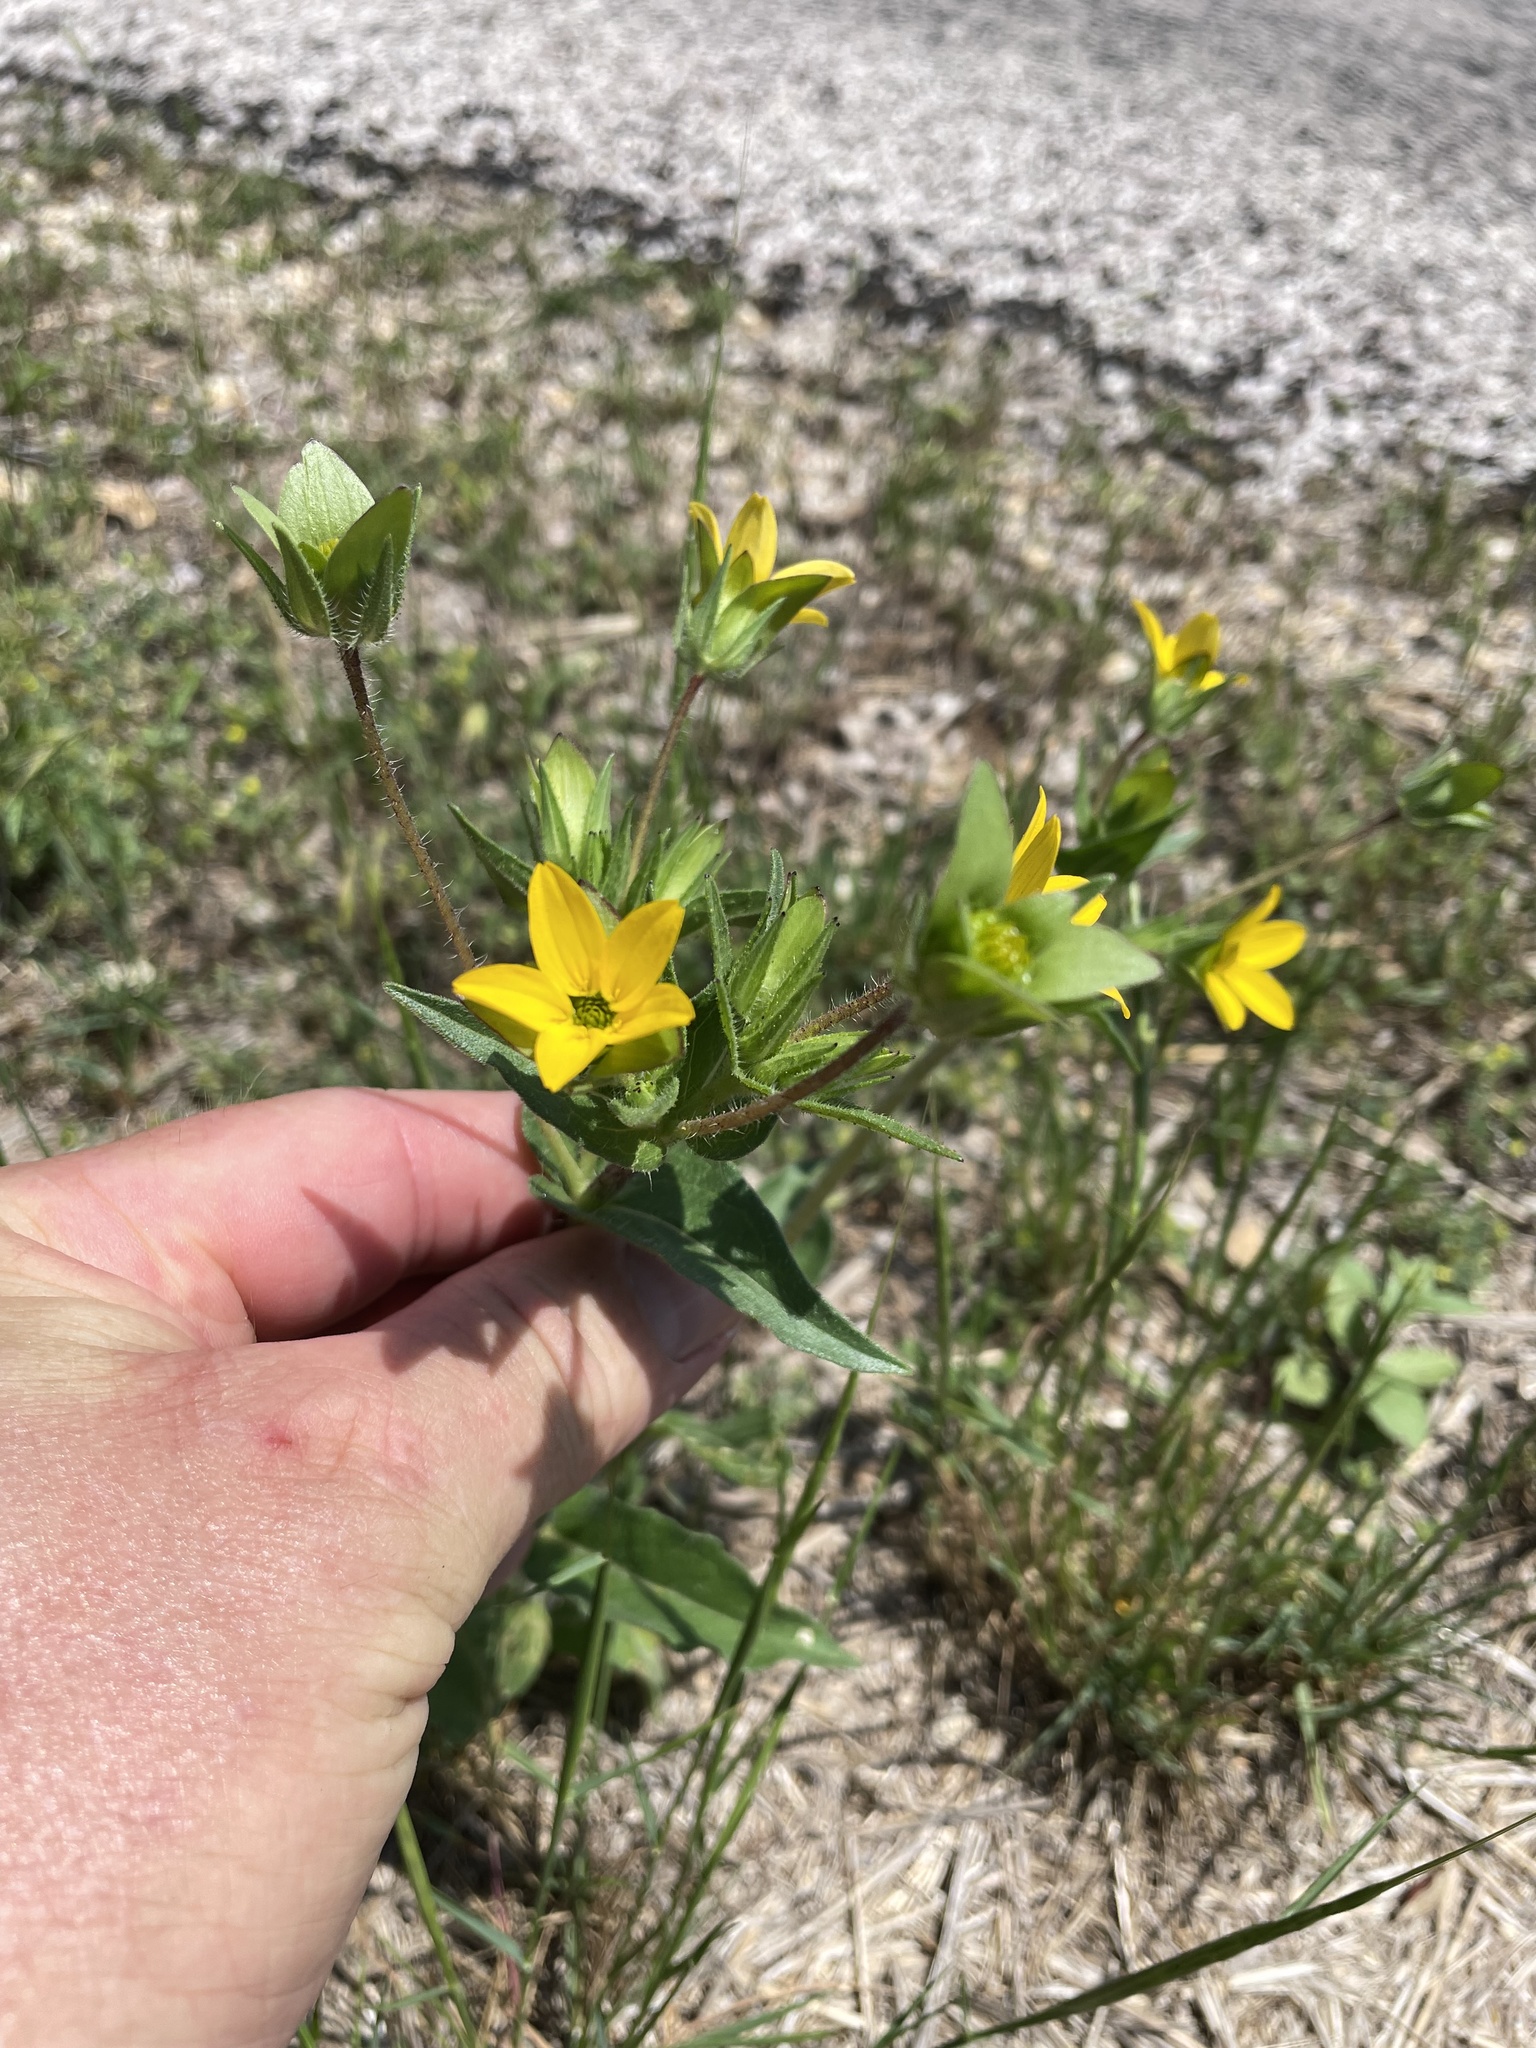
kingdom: Plantae
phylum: Tracheophyta
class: Magnoliopsida
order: Asterales
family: Asteraceae
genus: Lindheimera
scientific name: Lindheimera texana
